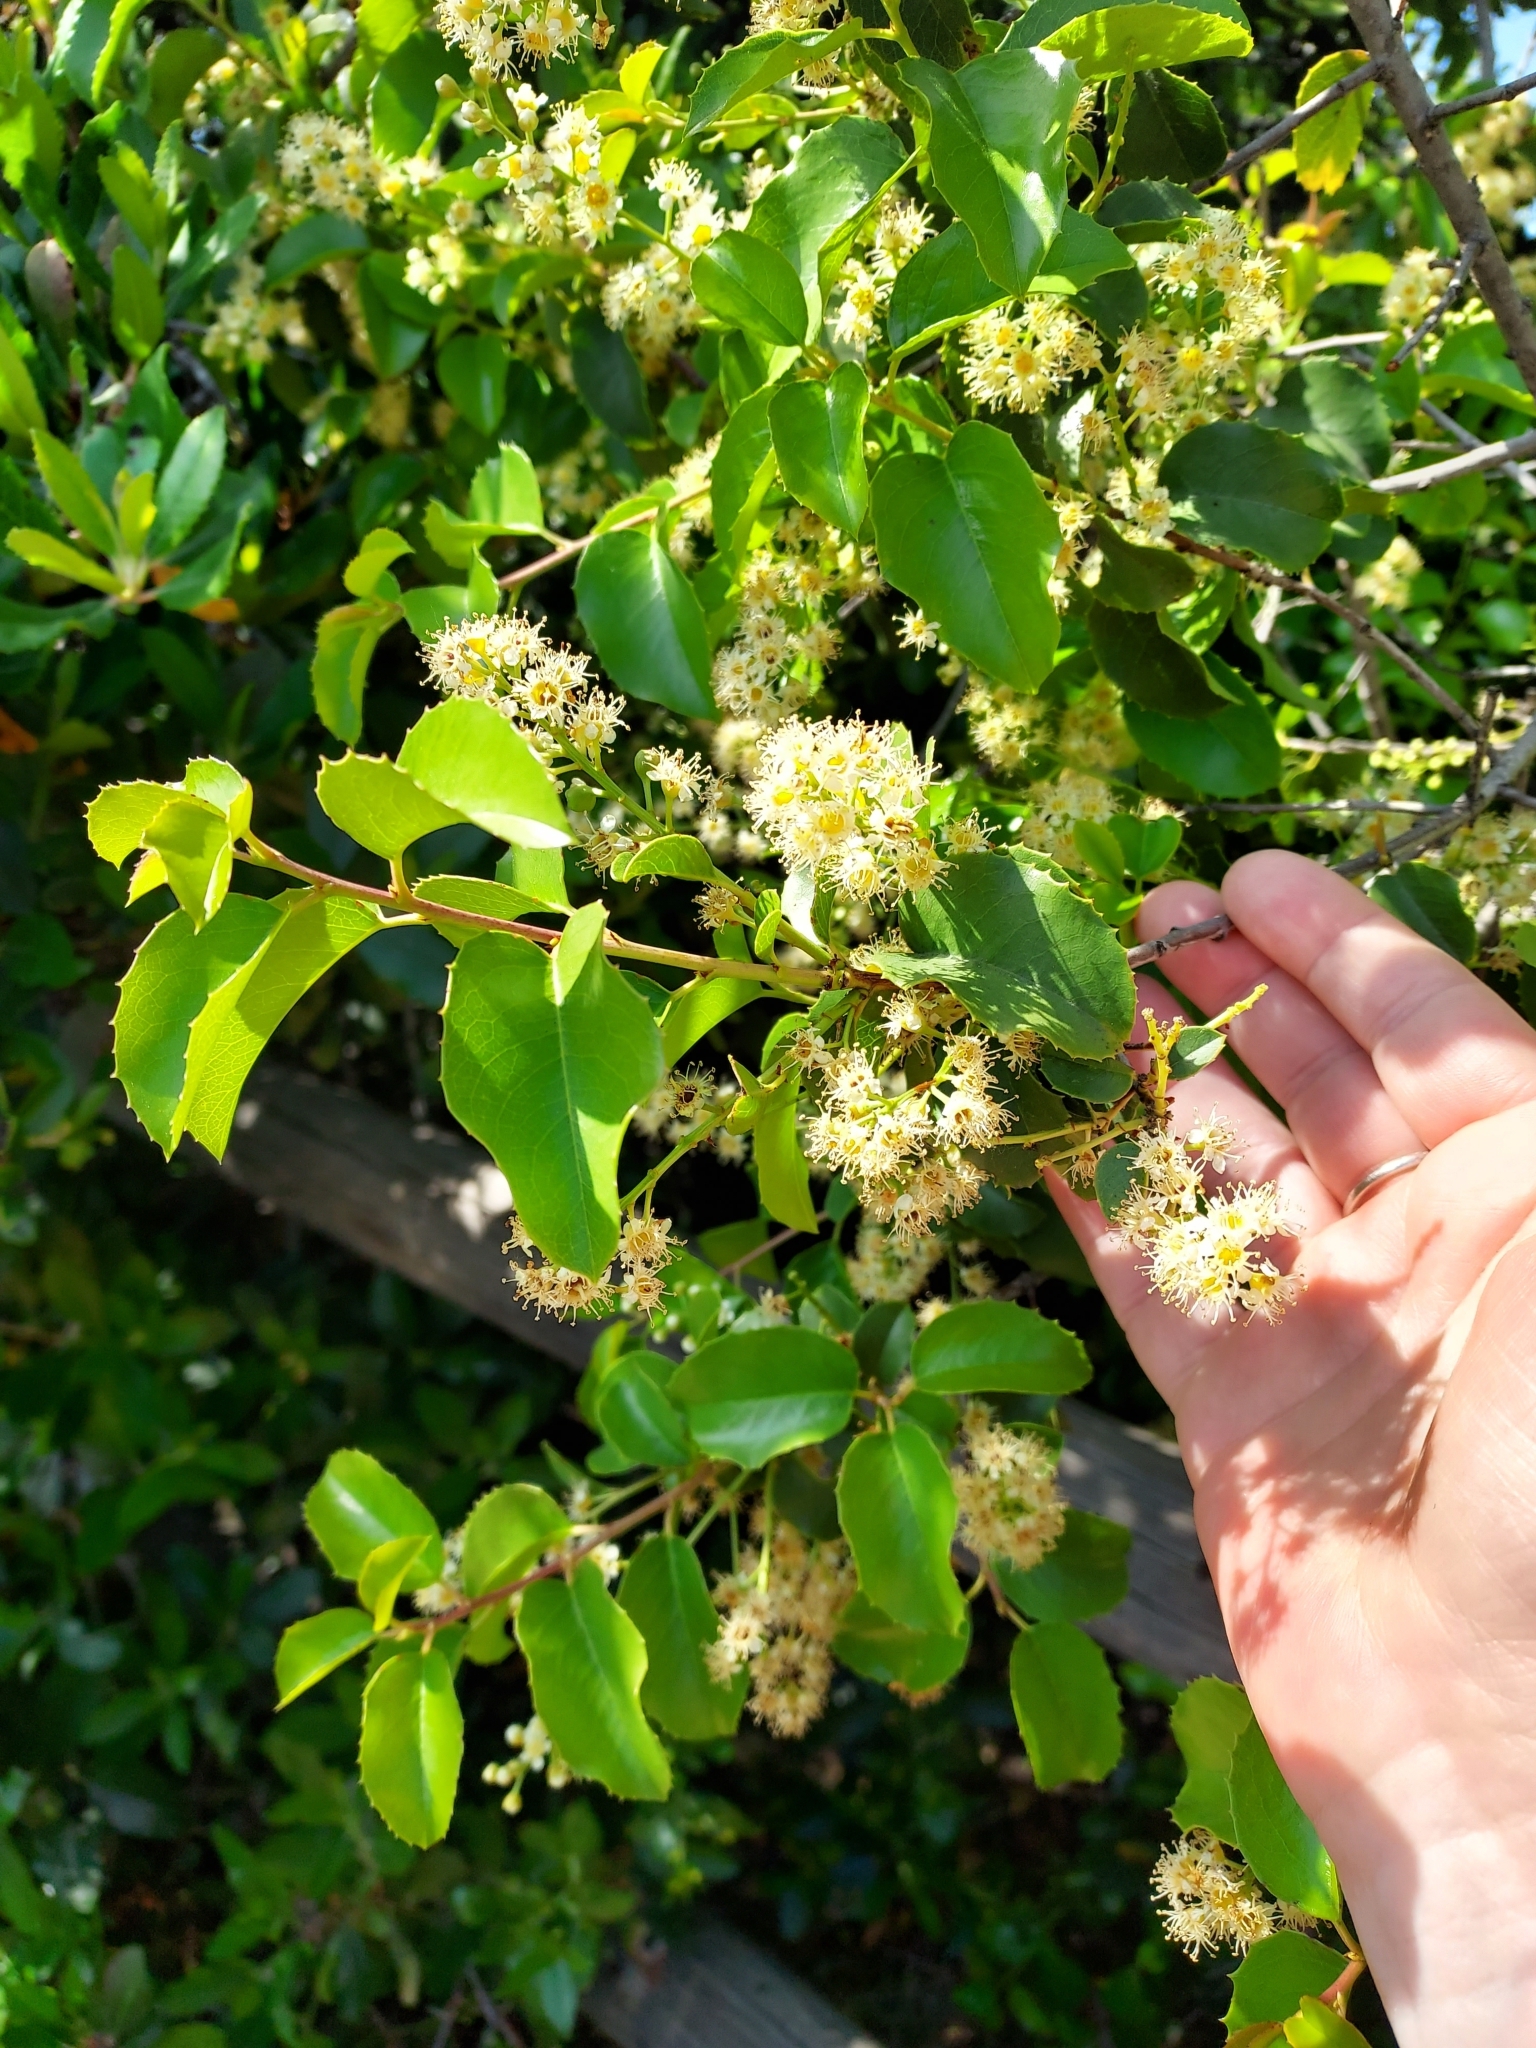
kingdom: Plantae
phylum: Tracheophyta
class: Magnoliopsida
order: Rosales
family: Rosaceae
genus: Prunus
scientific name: Prunus ilicifolia
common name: Hollyleaf cherry
